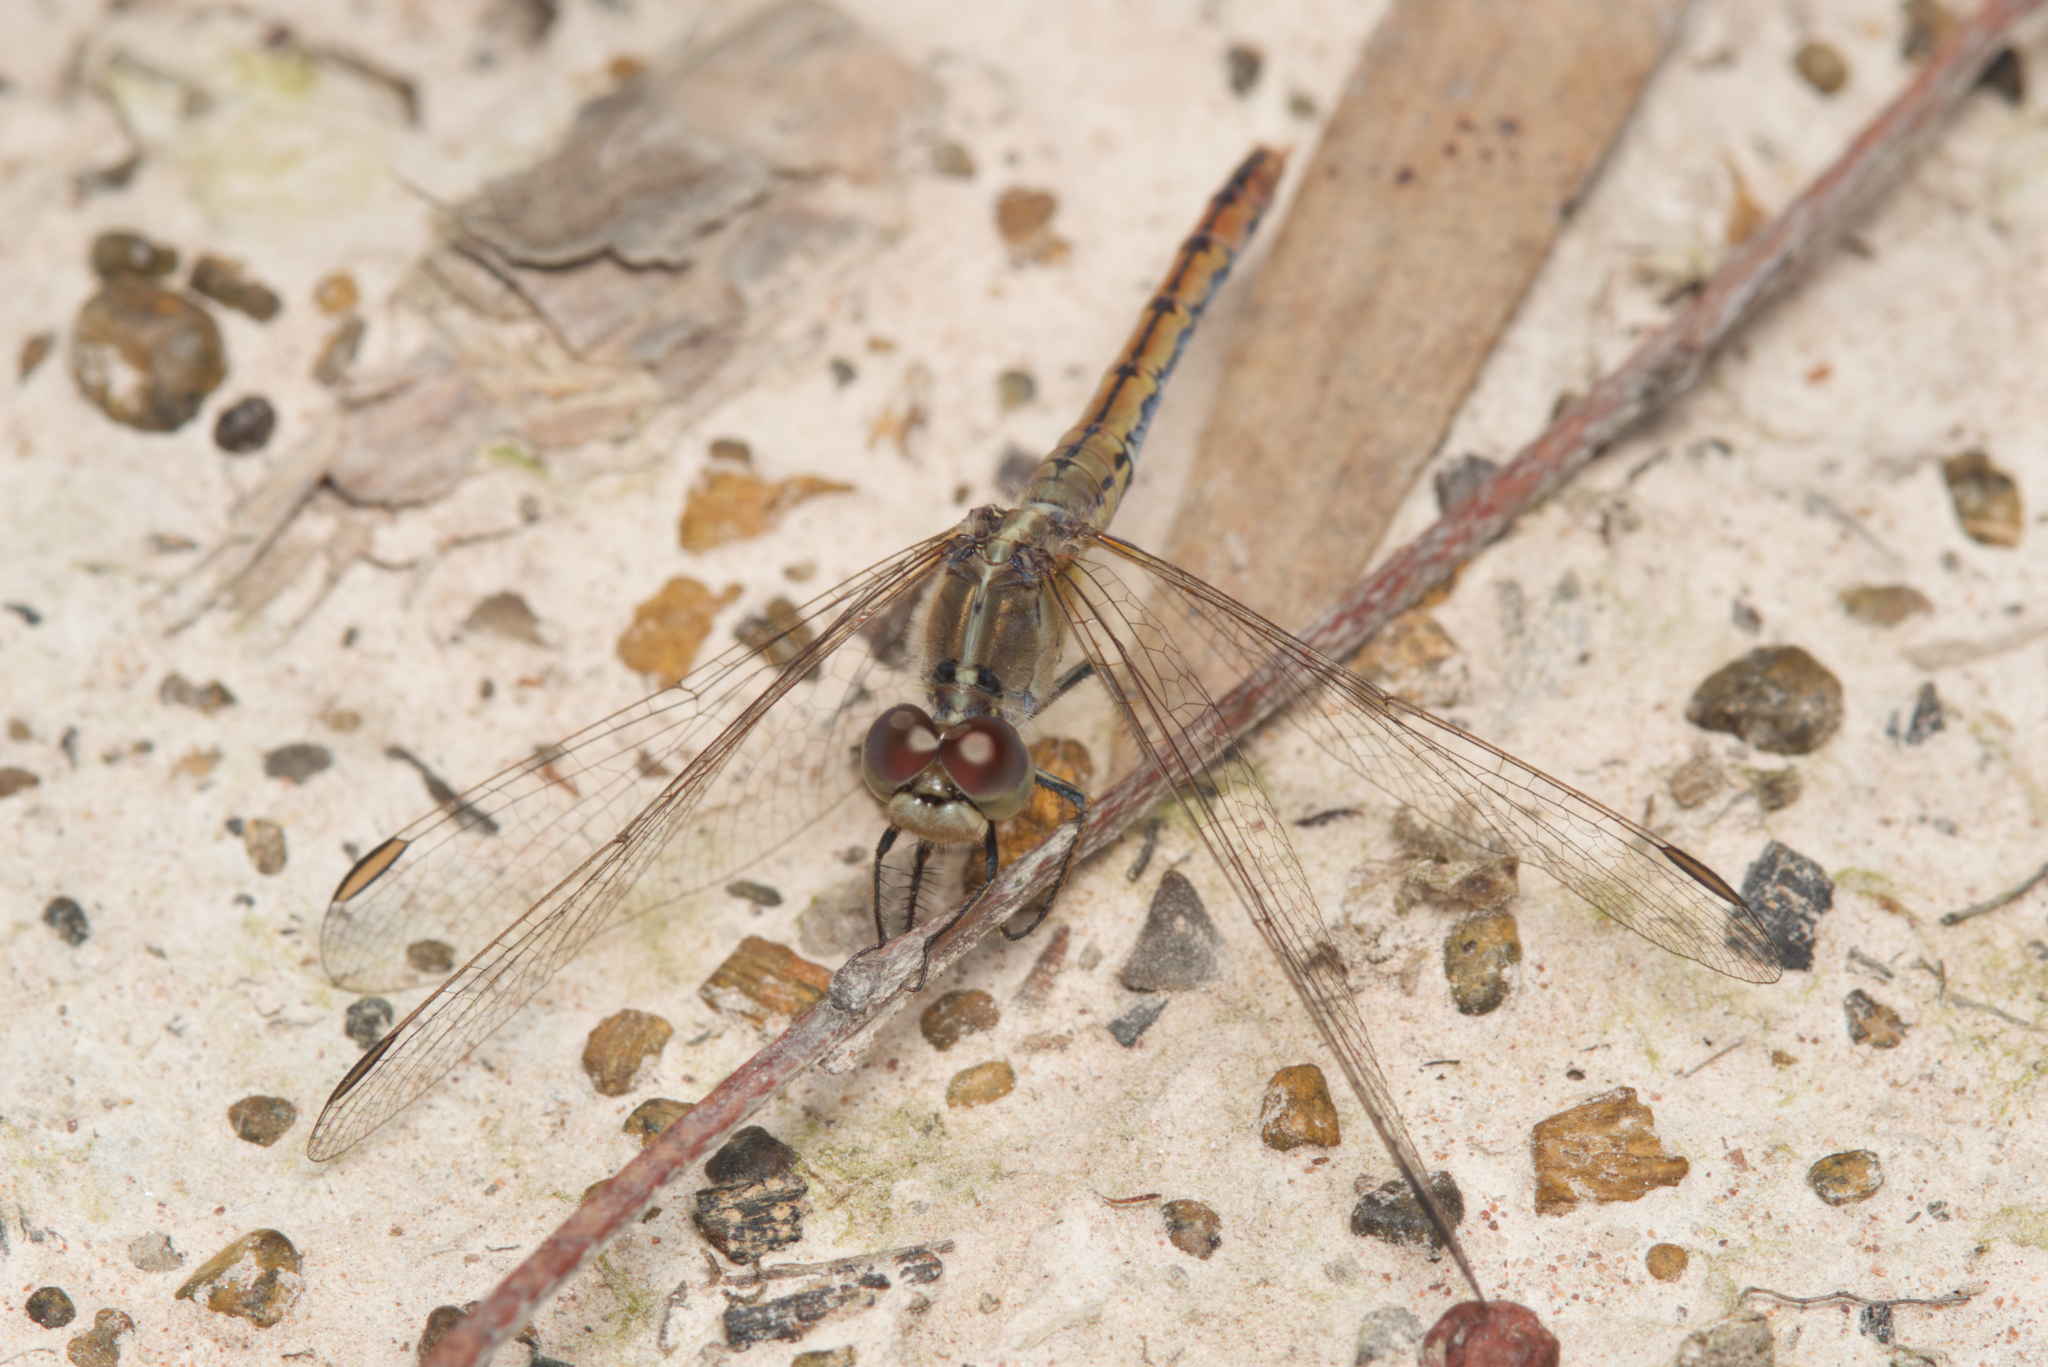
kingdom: Animalia
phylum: Arthropoda
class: Insecta
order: Odonata
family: Libellulidae
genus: Diplacodes
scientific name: Diplacodes bipunctata
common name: Red percher dragonfly
